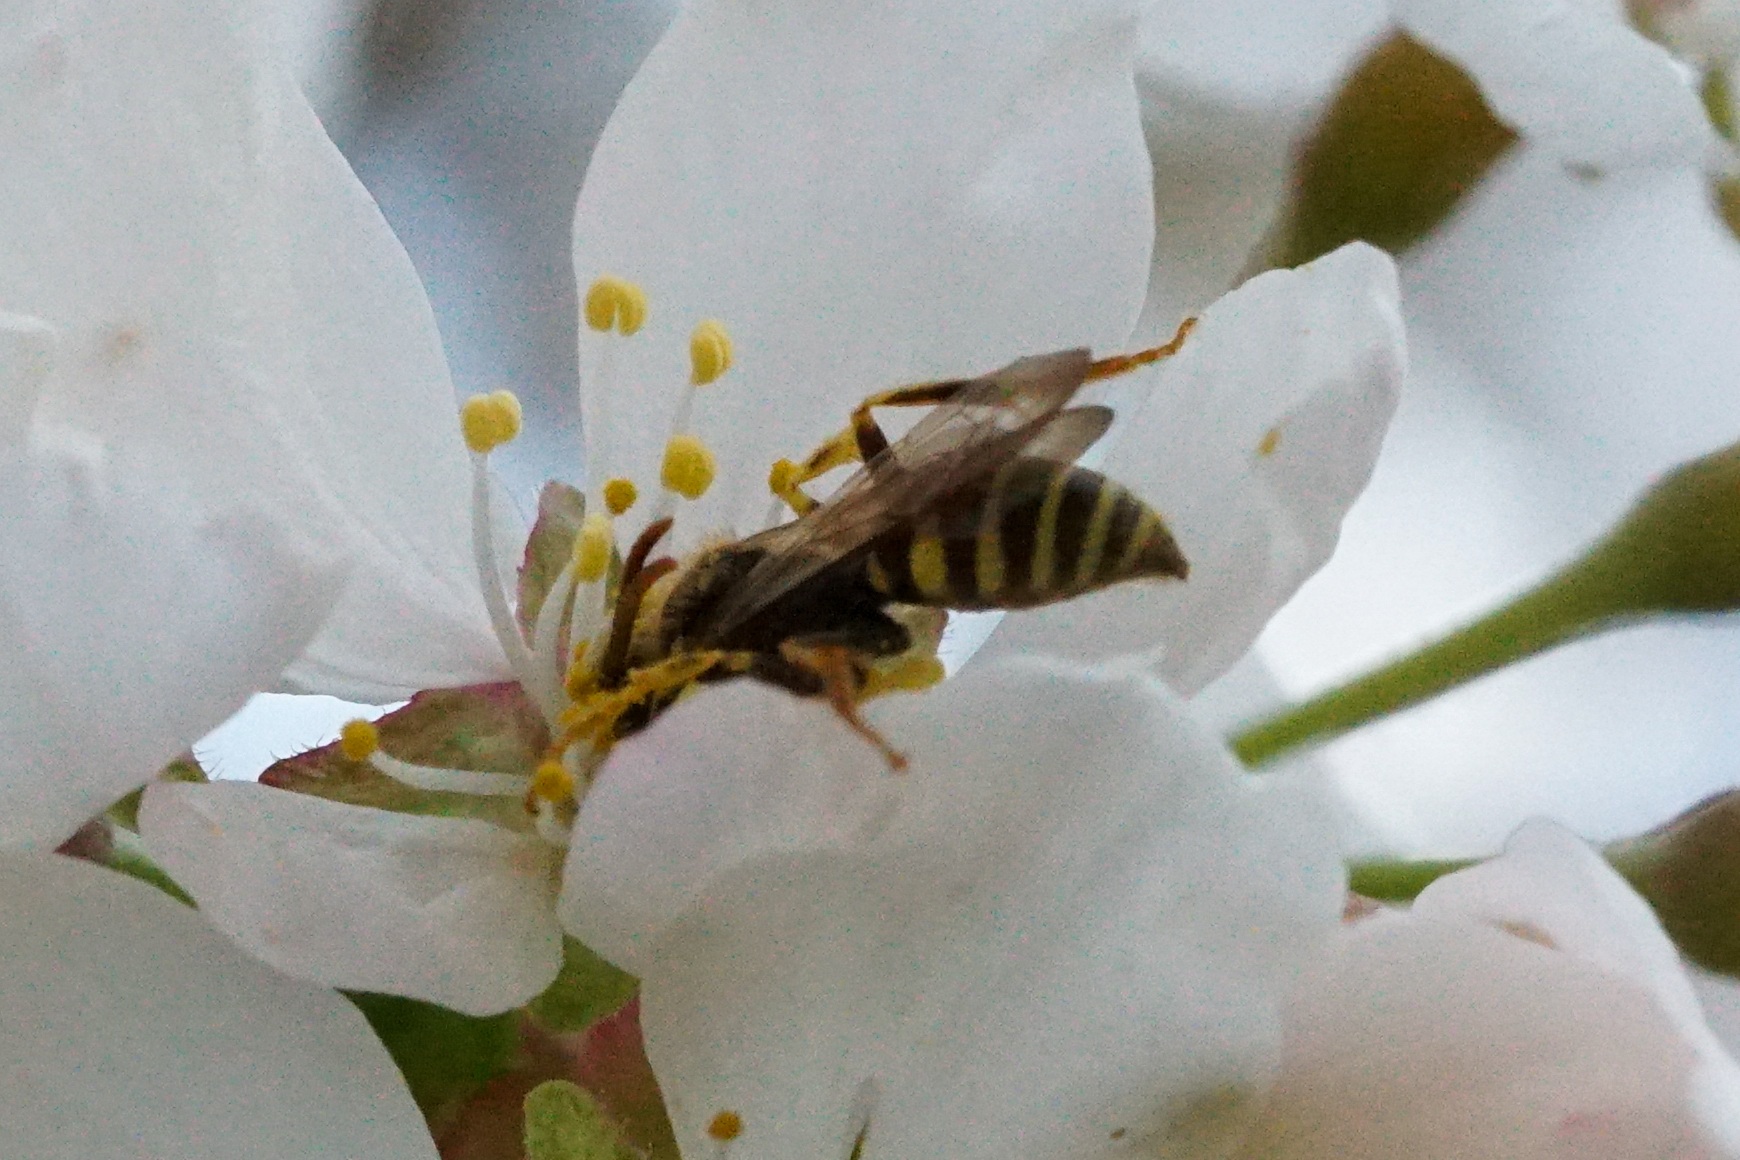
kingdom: Animalia
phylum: Arthropoda
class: Insecta
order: Hymenoptera
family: Apidae
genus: Nomada
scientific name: Nomada
